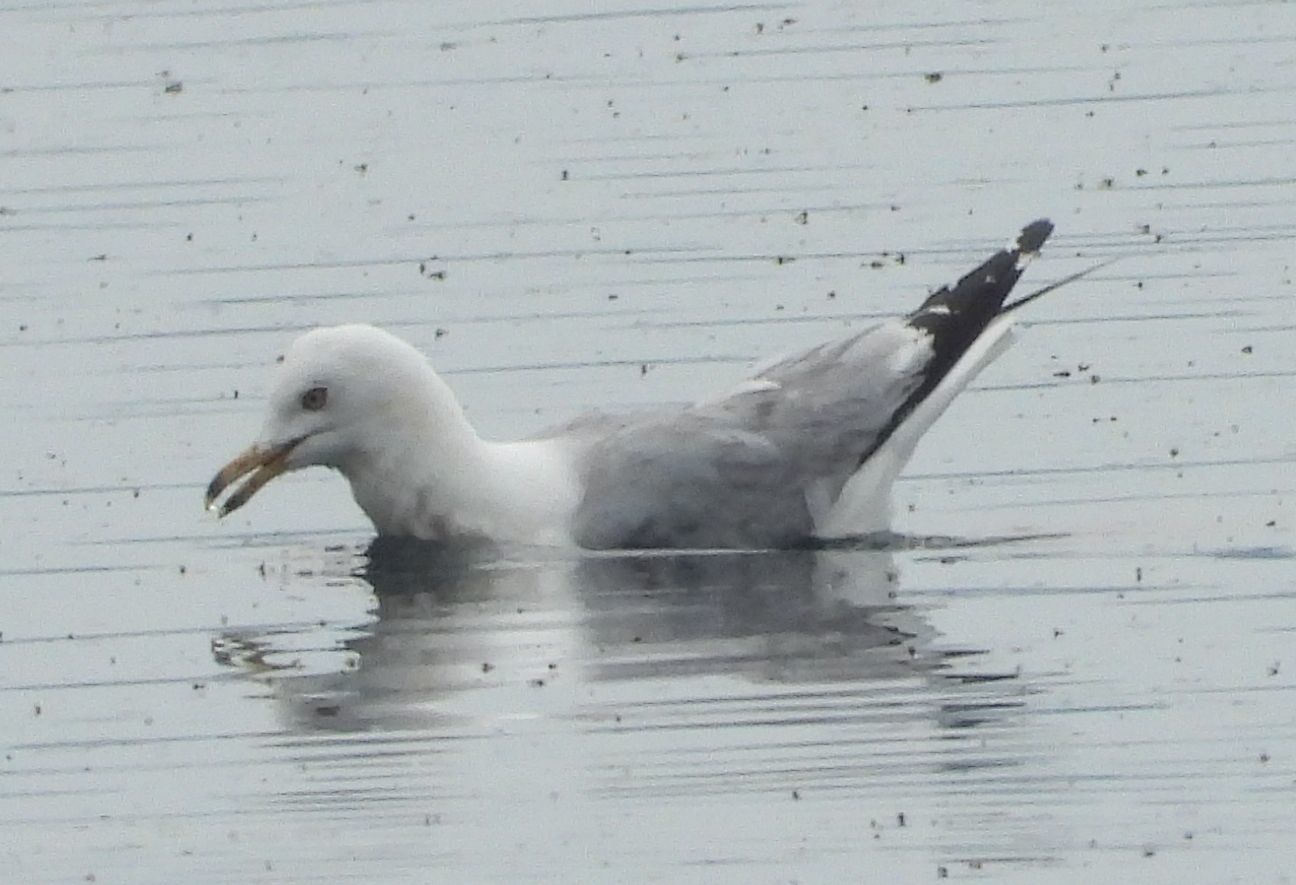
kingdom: Animalia
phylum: Chordata
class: Aves
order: Charadriiformes
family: Laridae
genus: Larus
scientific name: Larus delawarensis
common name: Ring-billed gull
